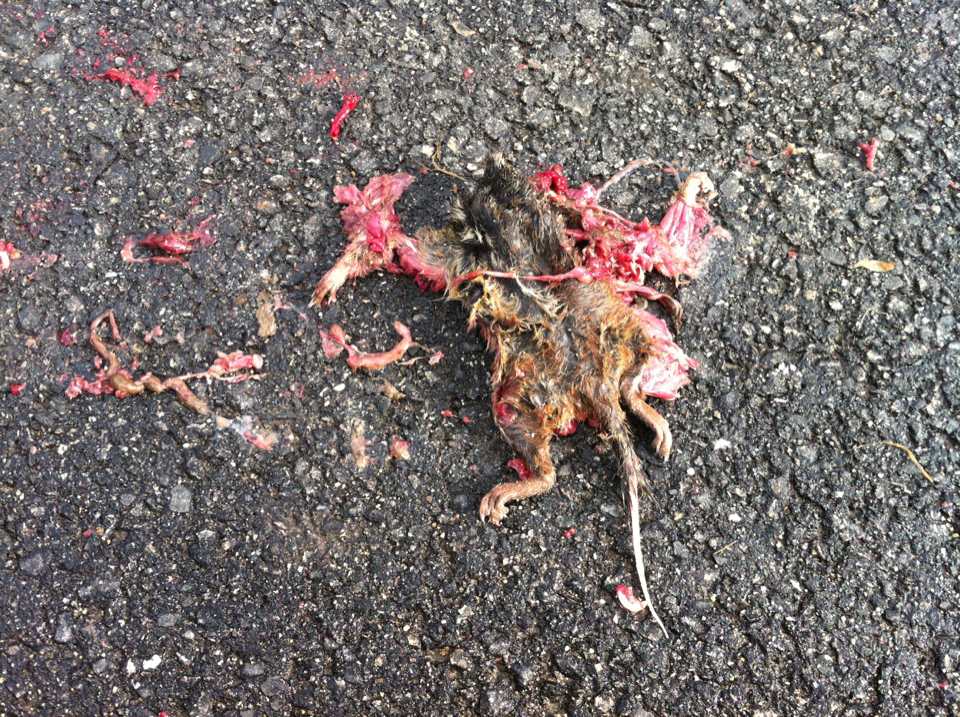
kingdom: Animalia
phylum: Chordata
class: Mammalia
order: Rodentia
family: Sciuridae
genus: Tamias
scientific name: Tamias striatus
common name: Eastern chipmunk
